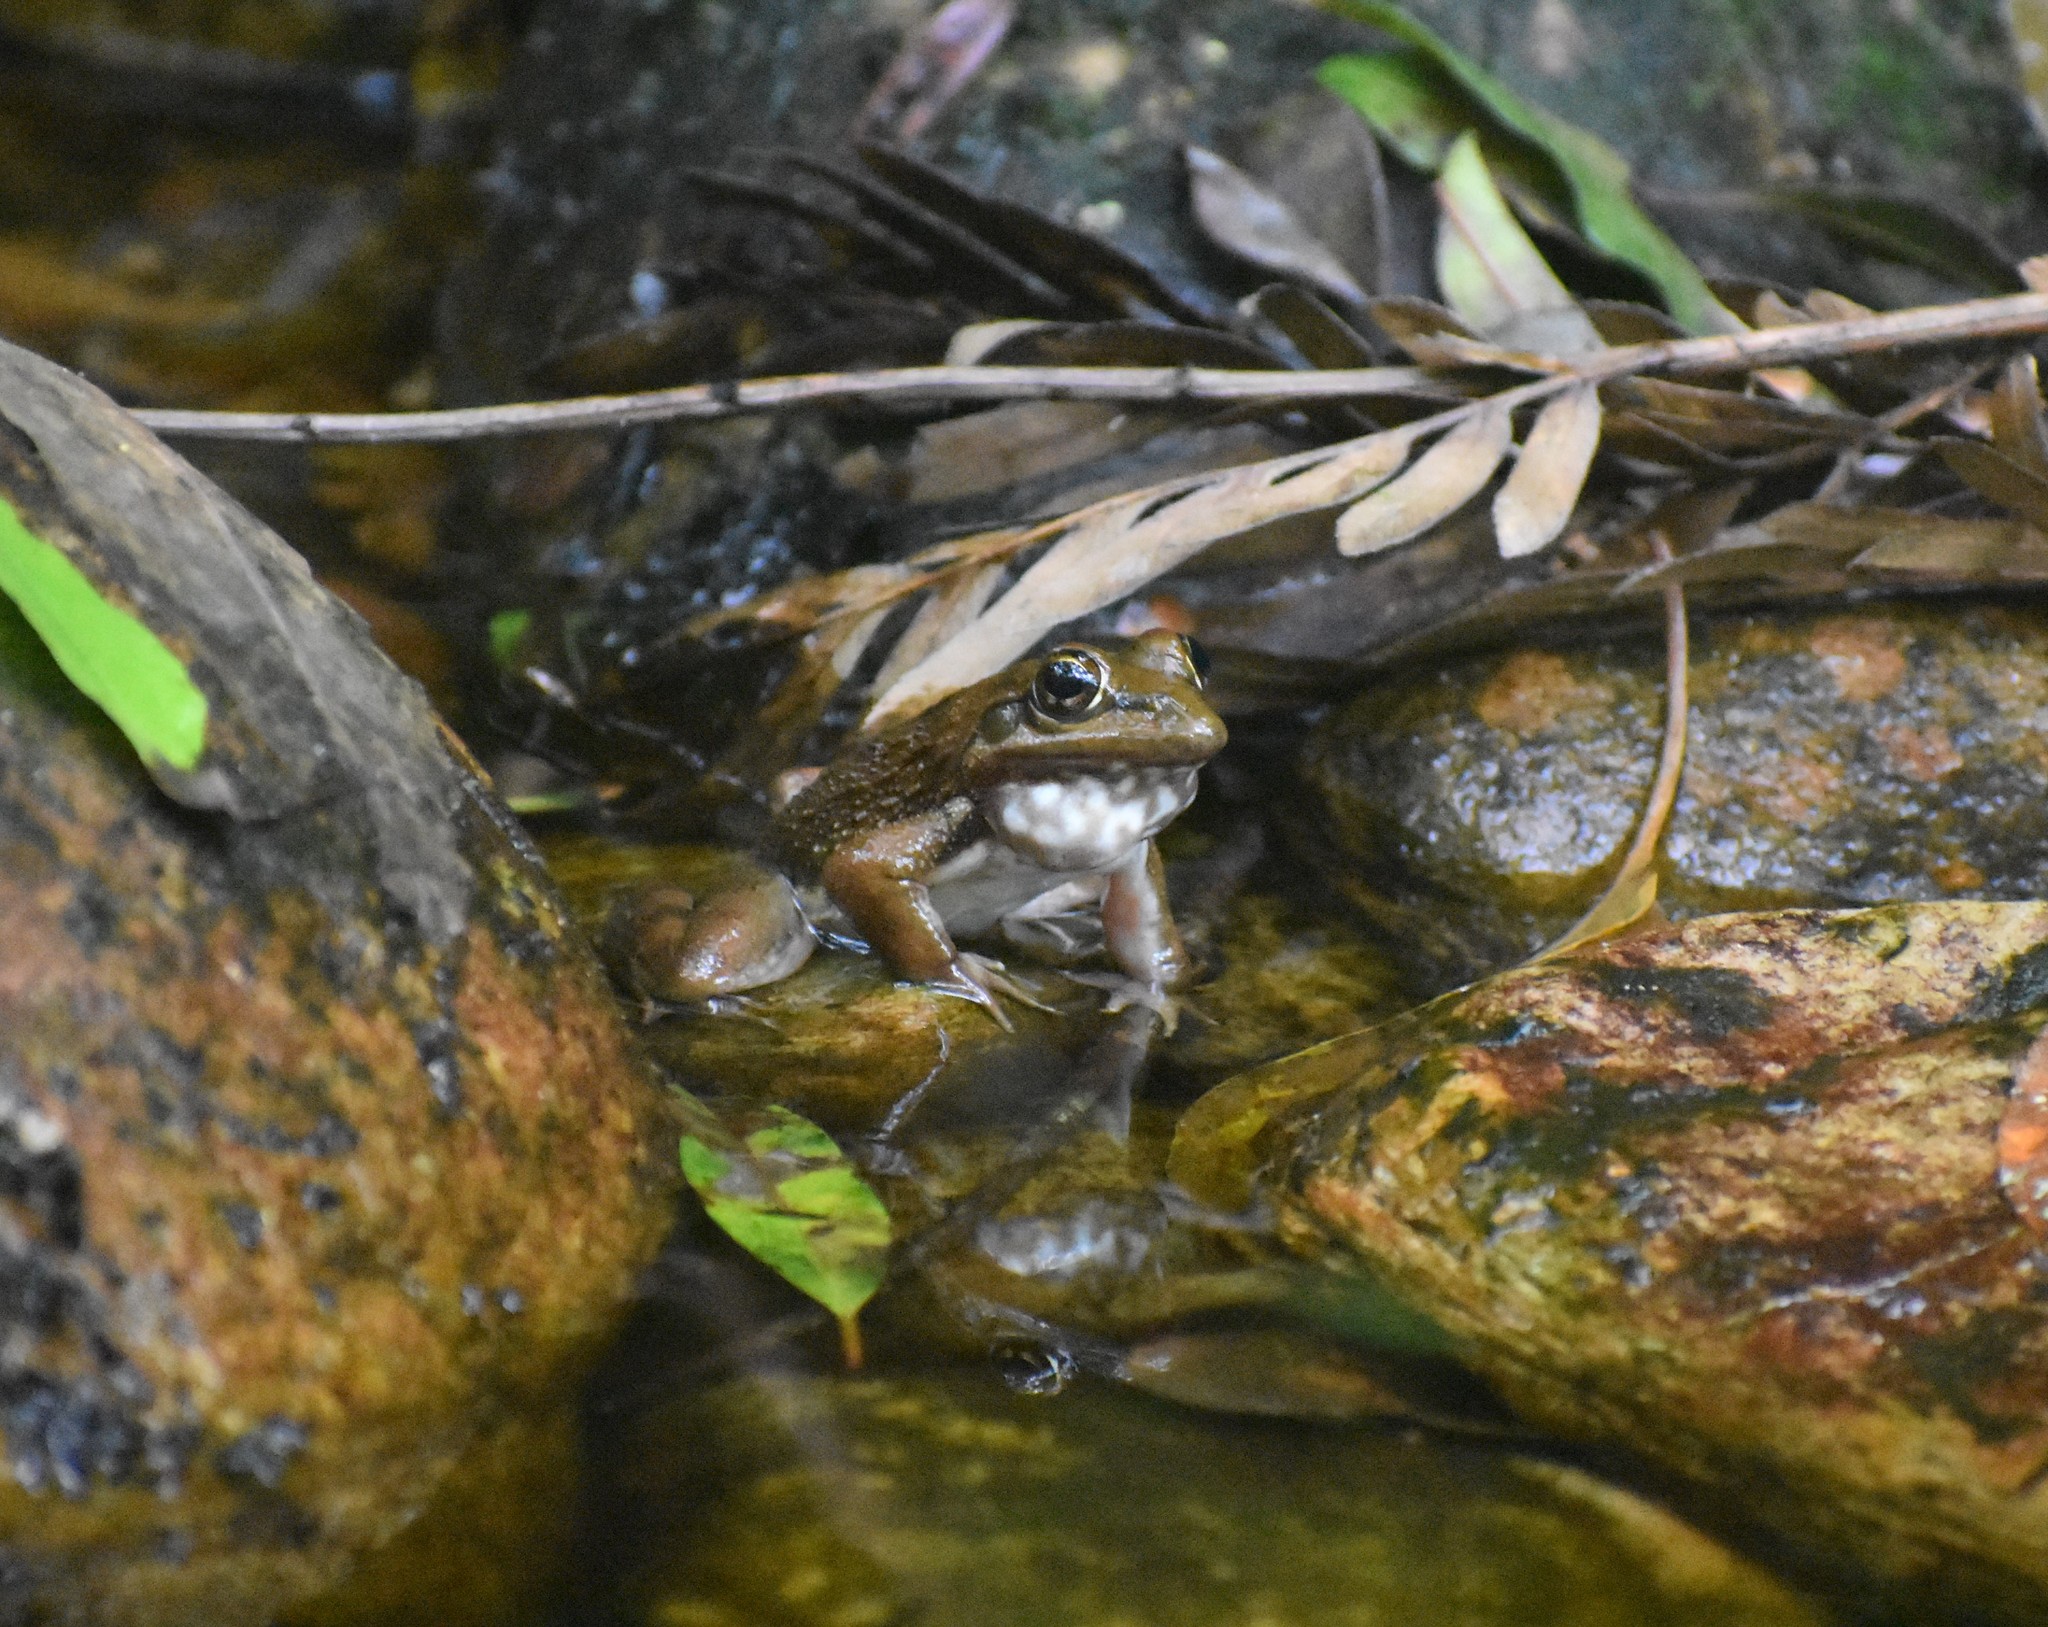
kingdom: Animalia
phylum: Chordata
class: Amphibia
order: Anura
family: Pyxicephalidae
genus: Amietia
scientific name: Amietia fuscigula
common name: Cape rana
